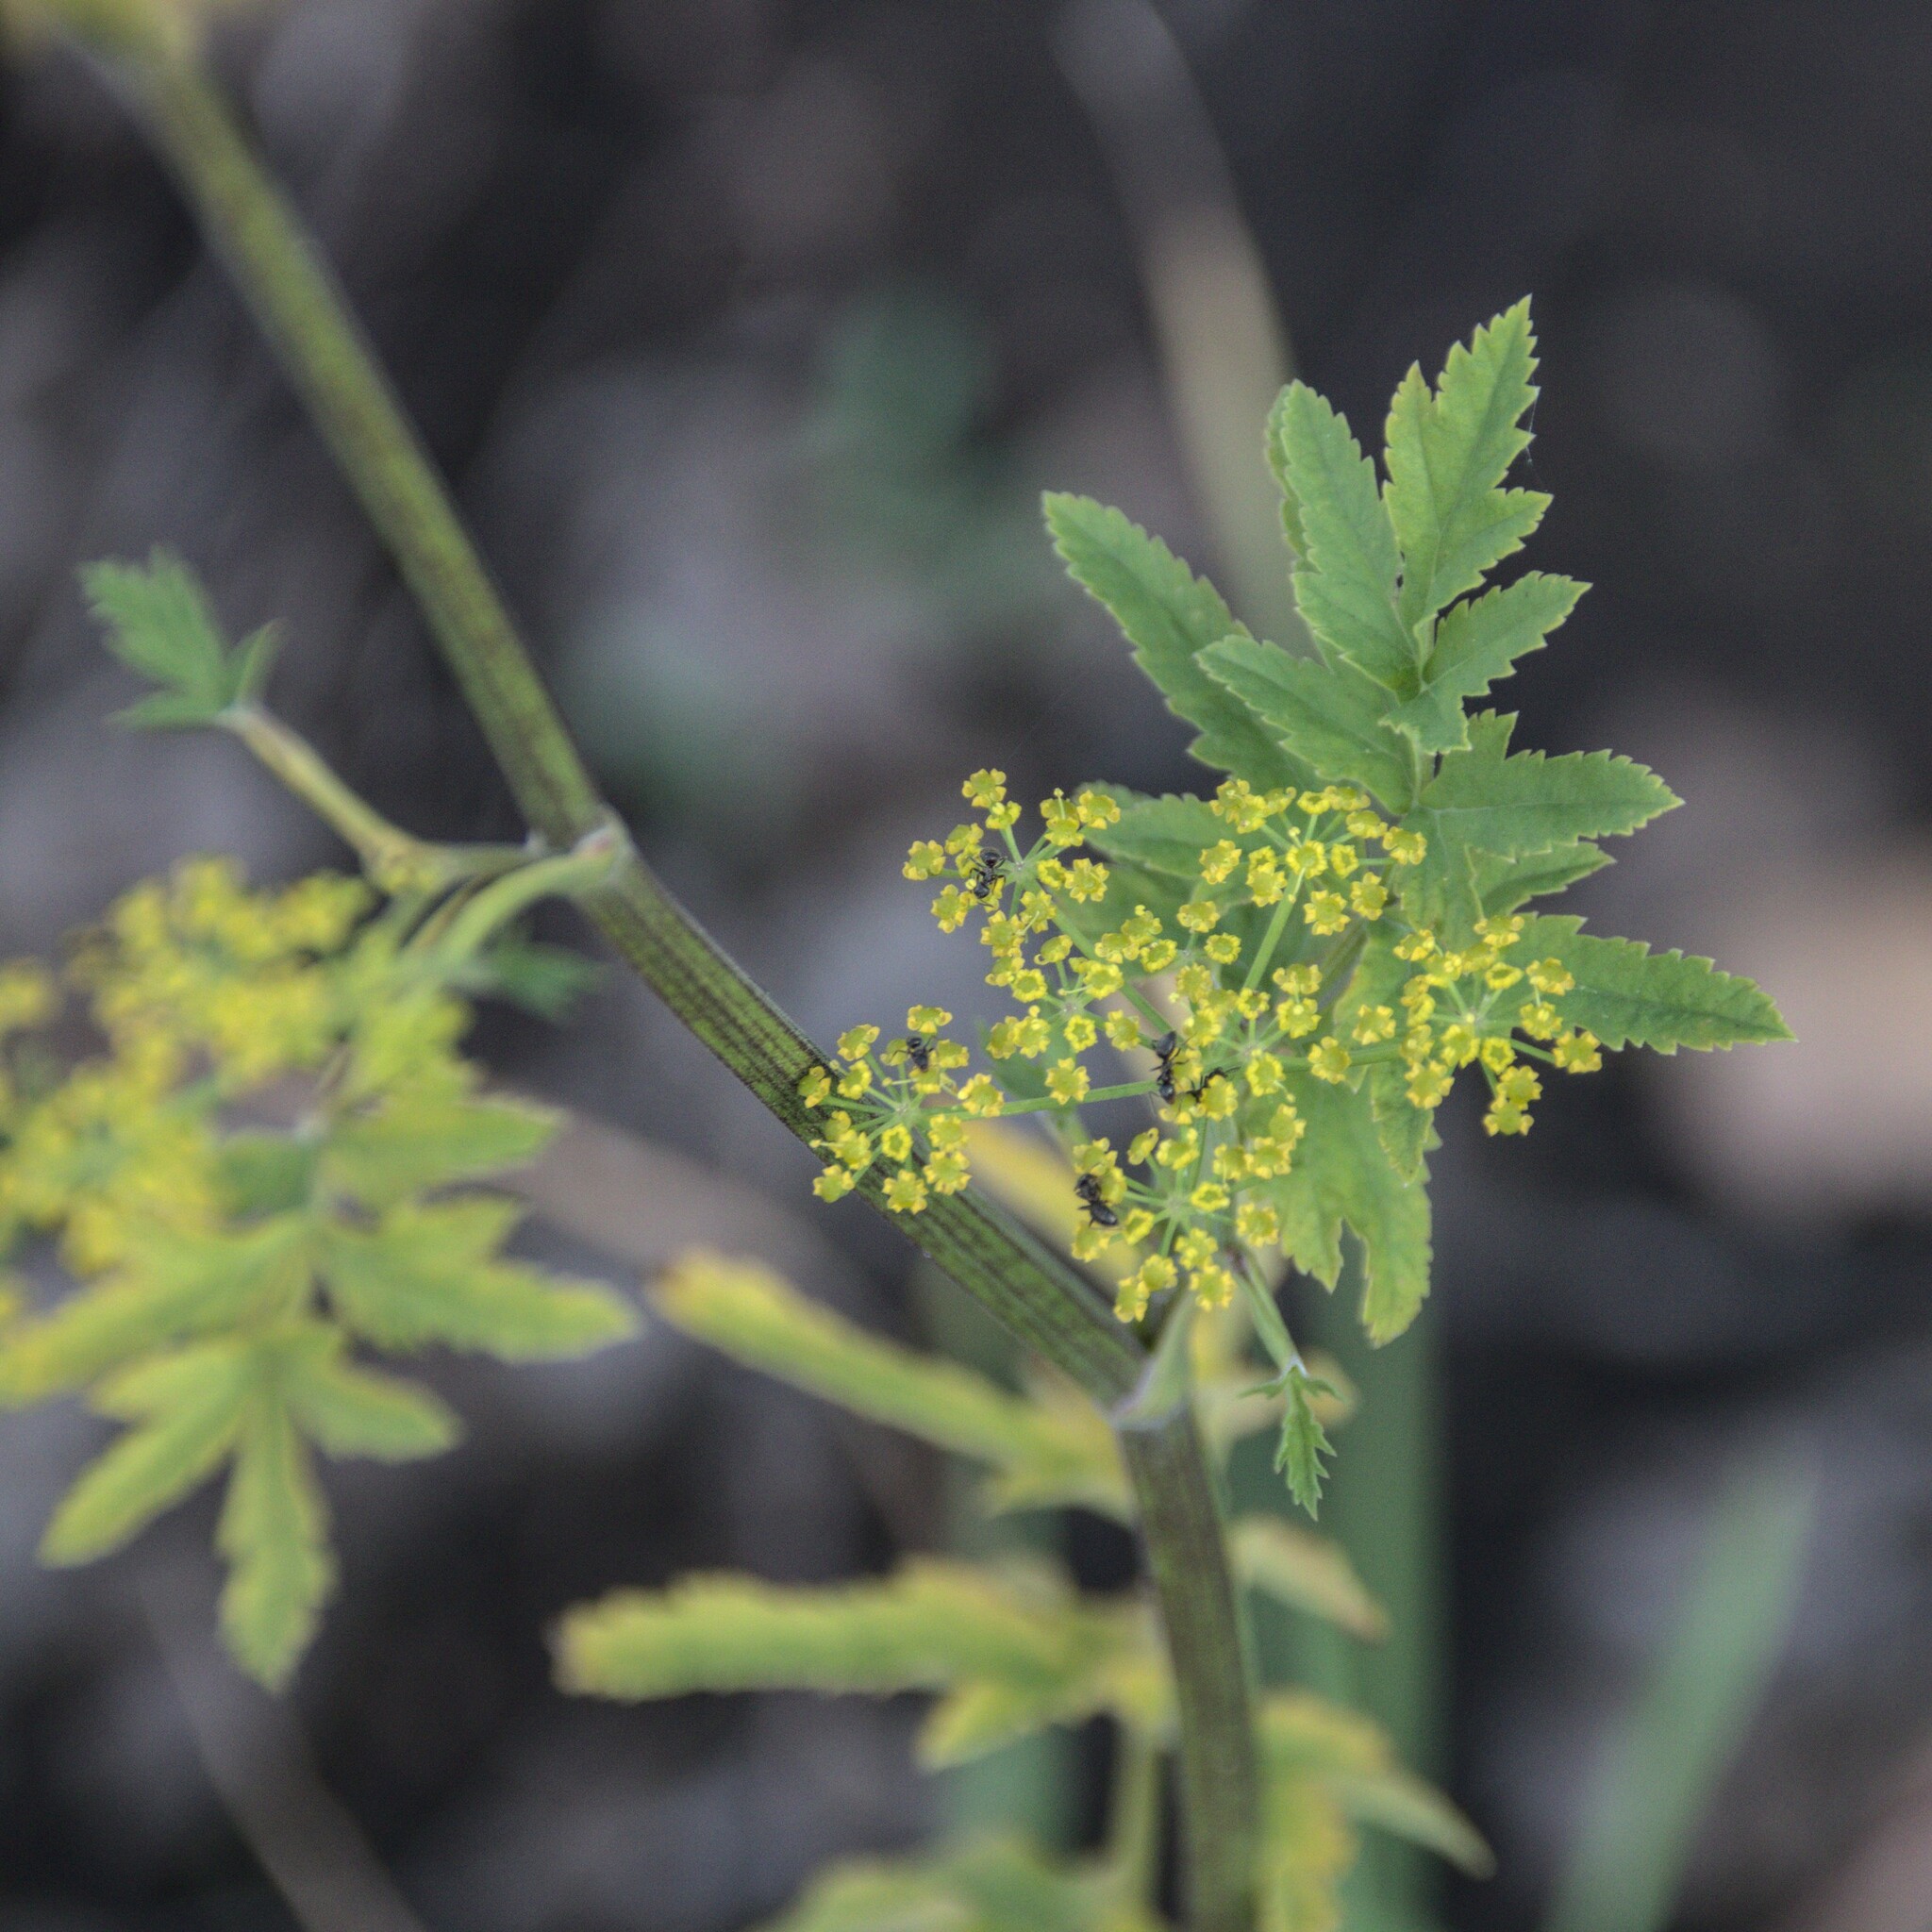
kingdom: Plantae
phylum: Tracheophyta
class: Magnoliopsida
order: Apiales
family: Apiaceae
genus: Pastinaca
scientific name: Pastinaca sativa
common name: Wild parsnip
